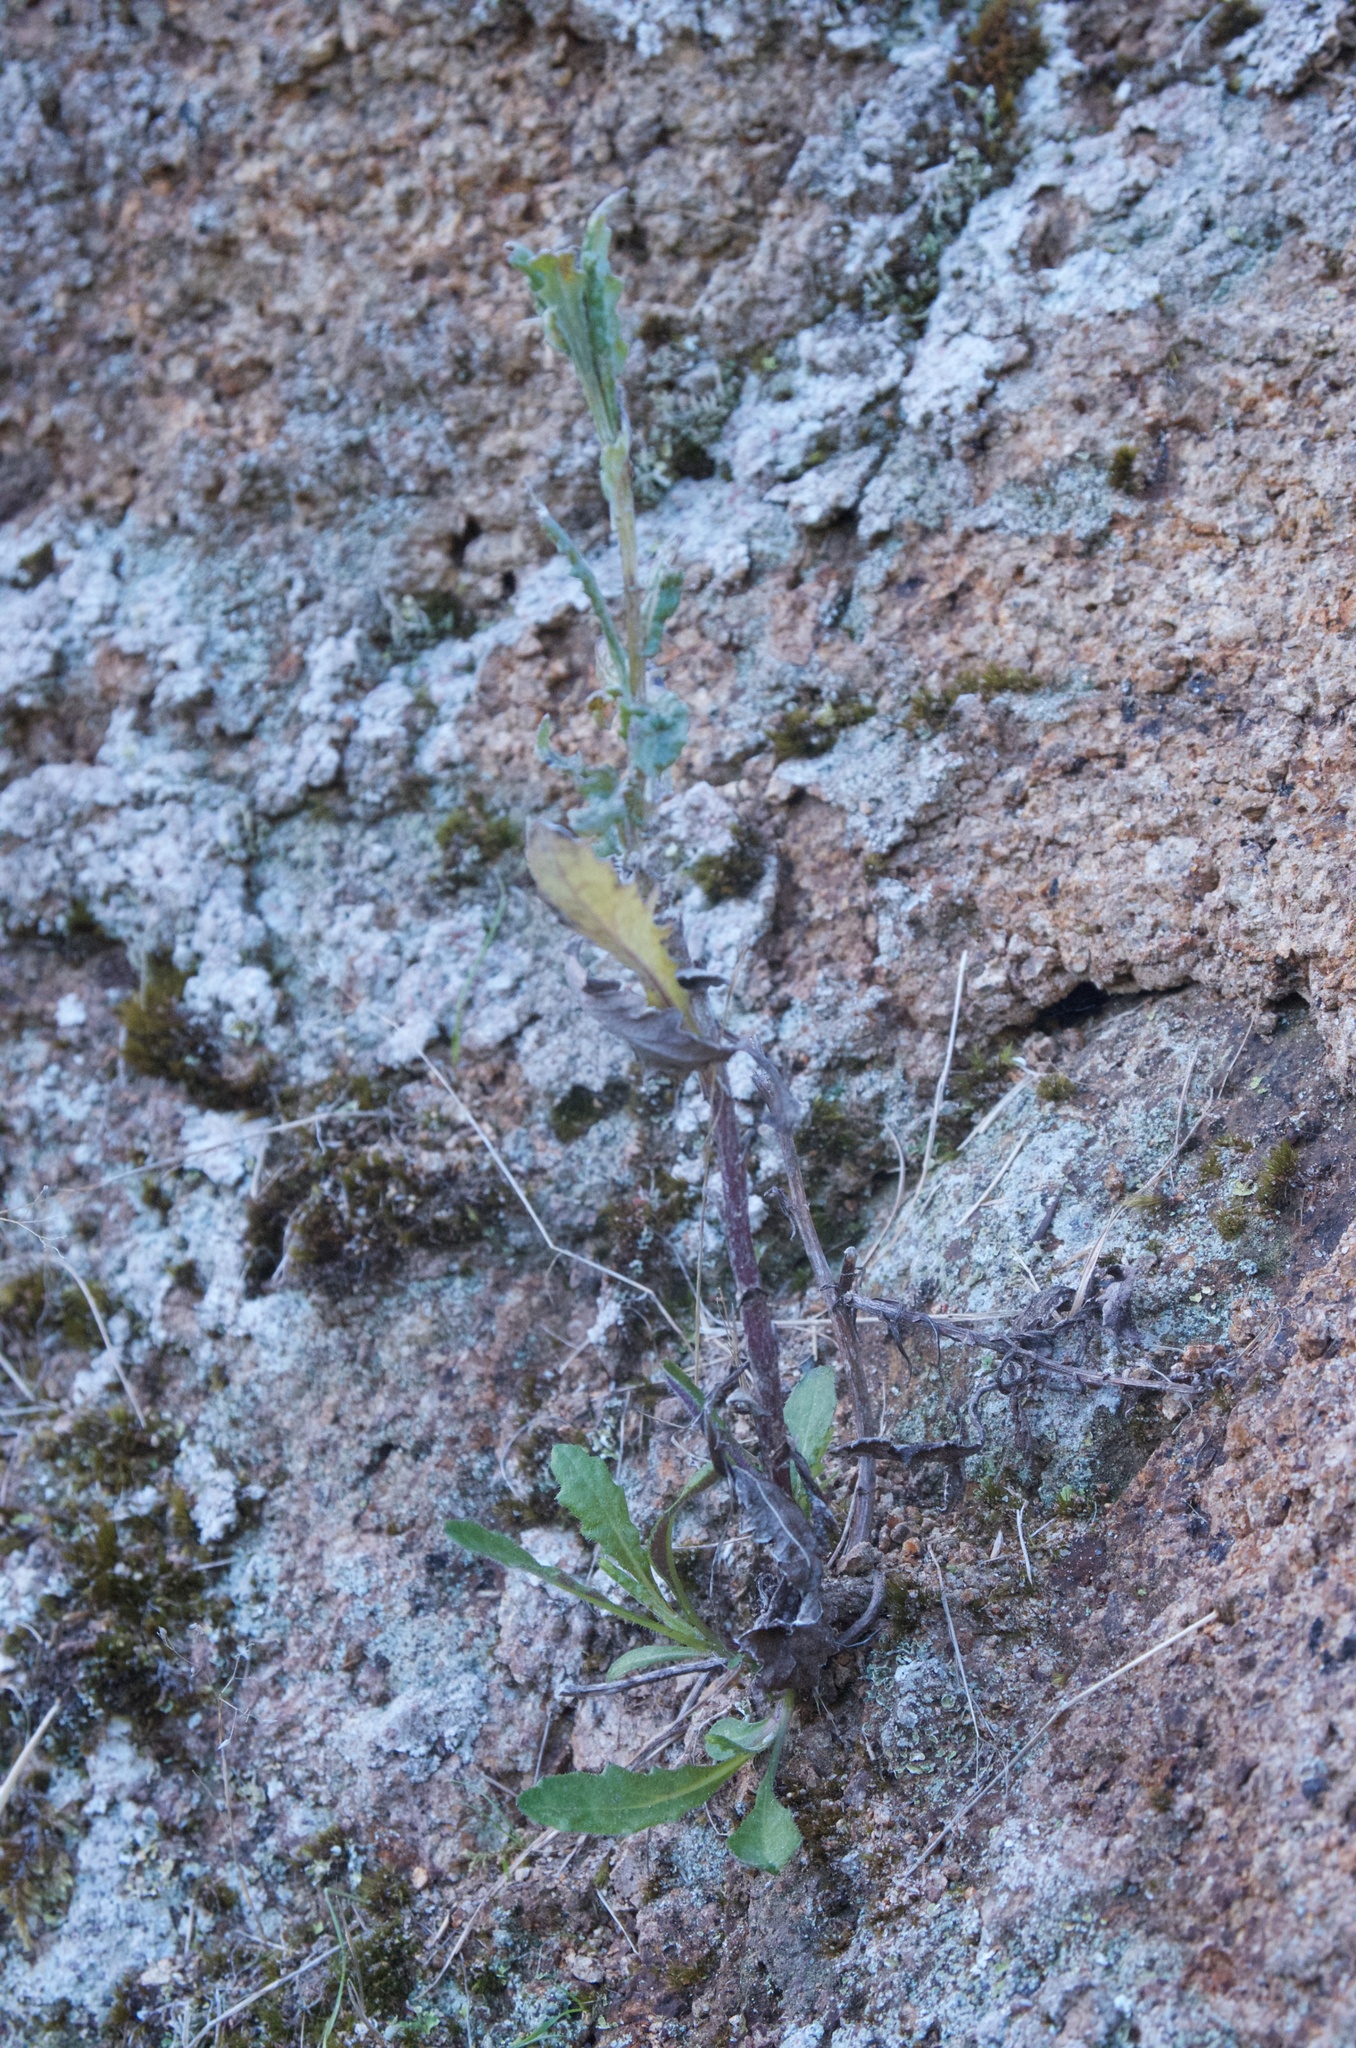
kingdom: Plantae
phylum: Tracheophyta
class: Magnoliopsida
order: Asterales
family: Asteraceae
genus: Senecio
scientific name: Senecio glomeratus
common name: Cutleaf burnweed
